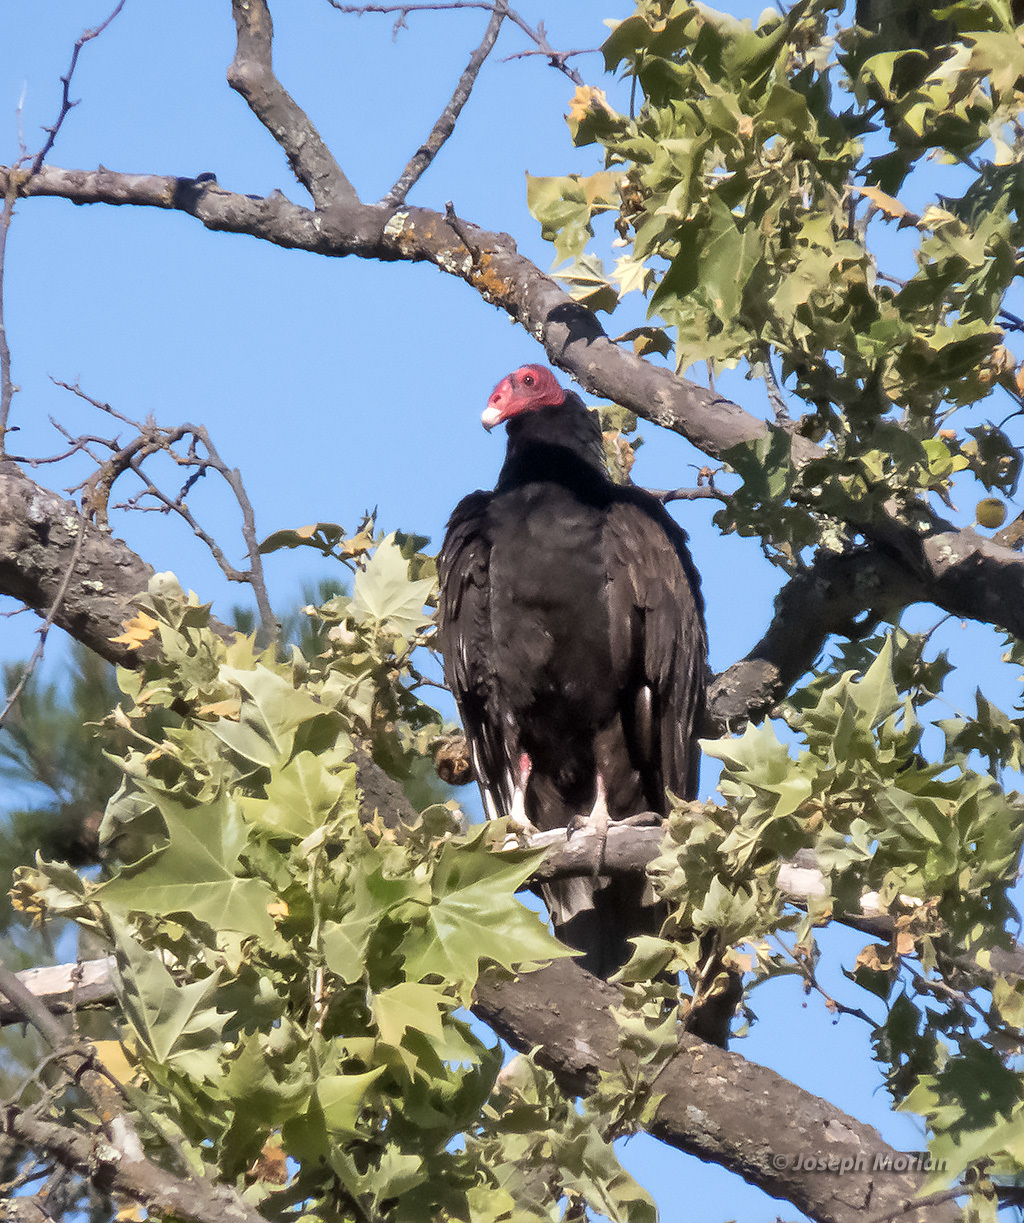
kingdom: Animalia
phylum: Chordata
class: Aves
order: Accipitriformes
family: Cathartidae
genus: Cathartes
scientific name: Cathartes aura
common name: Turkey vulture
